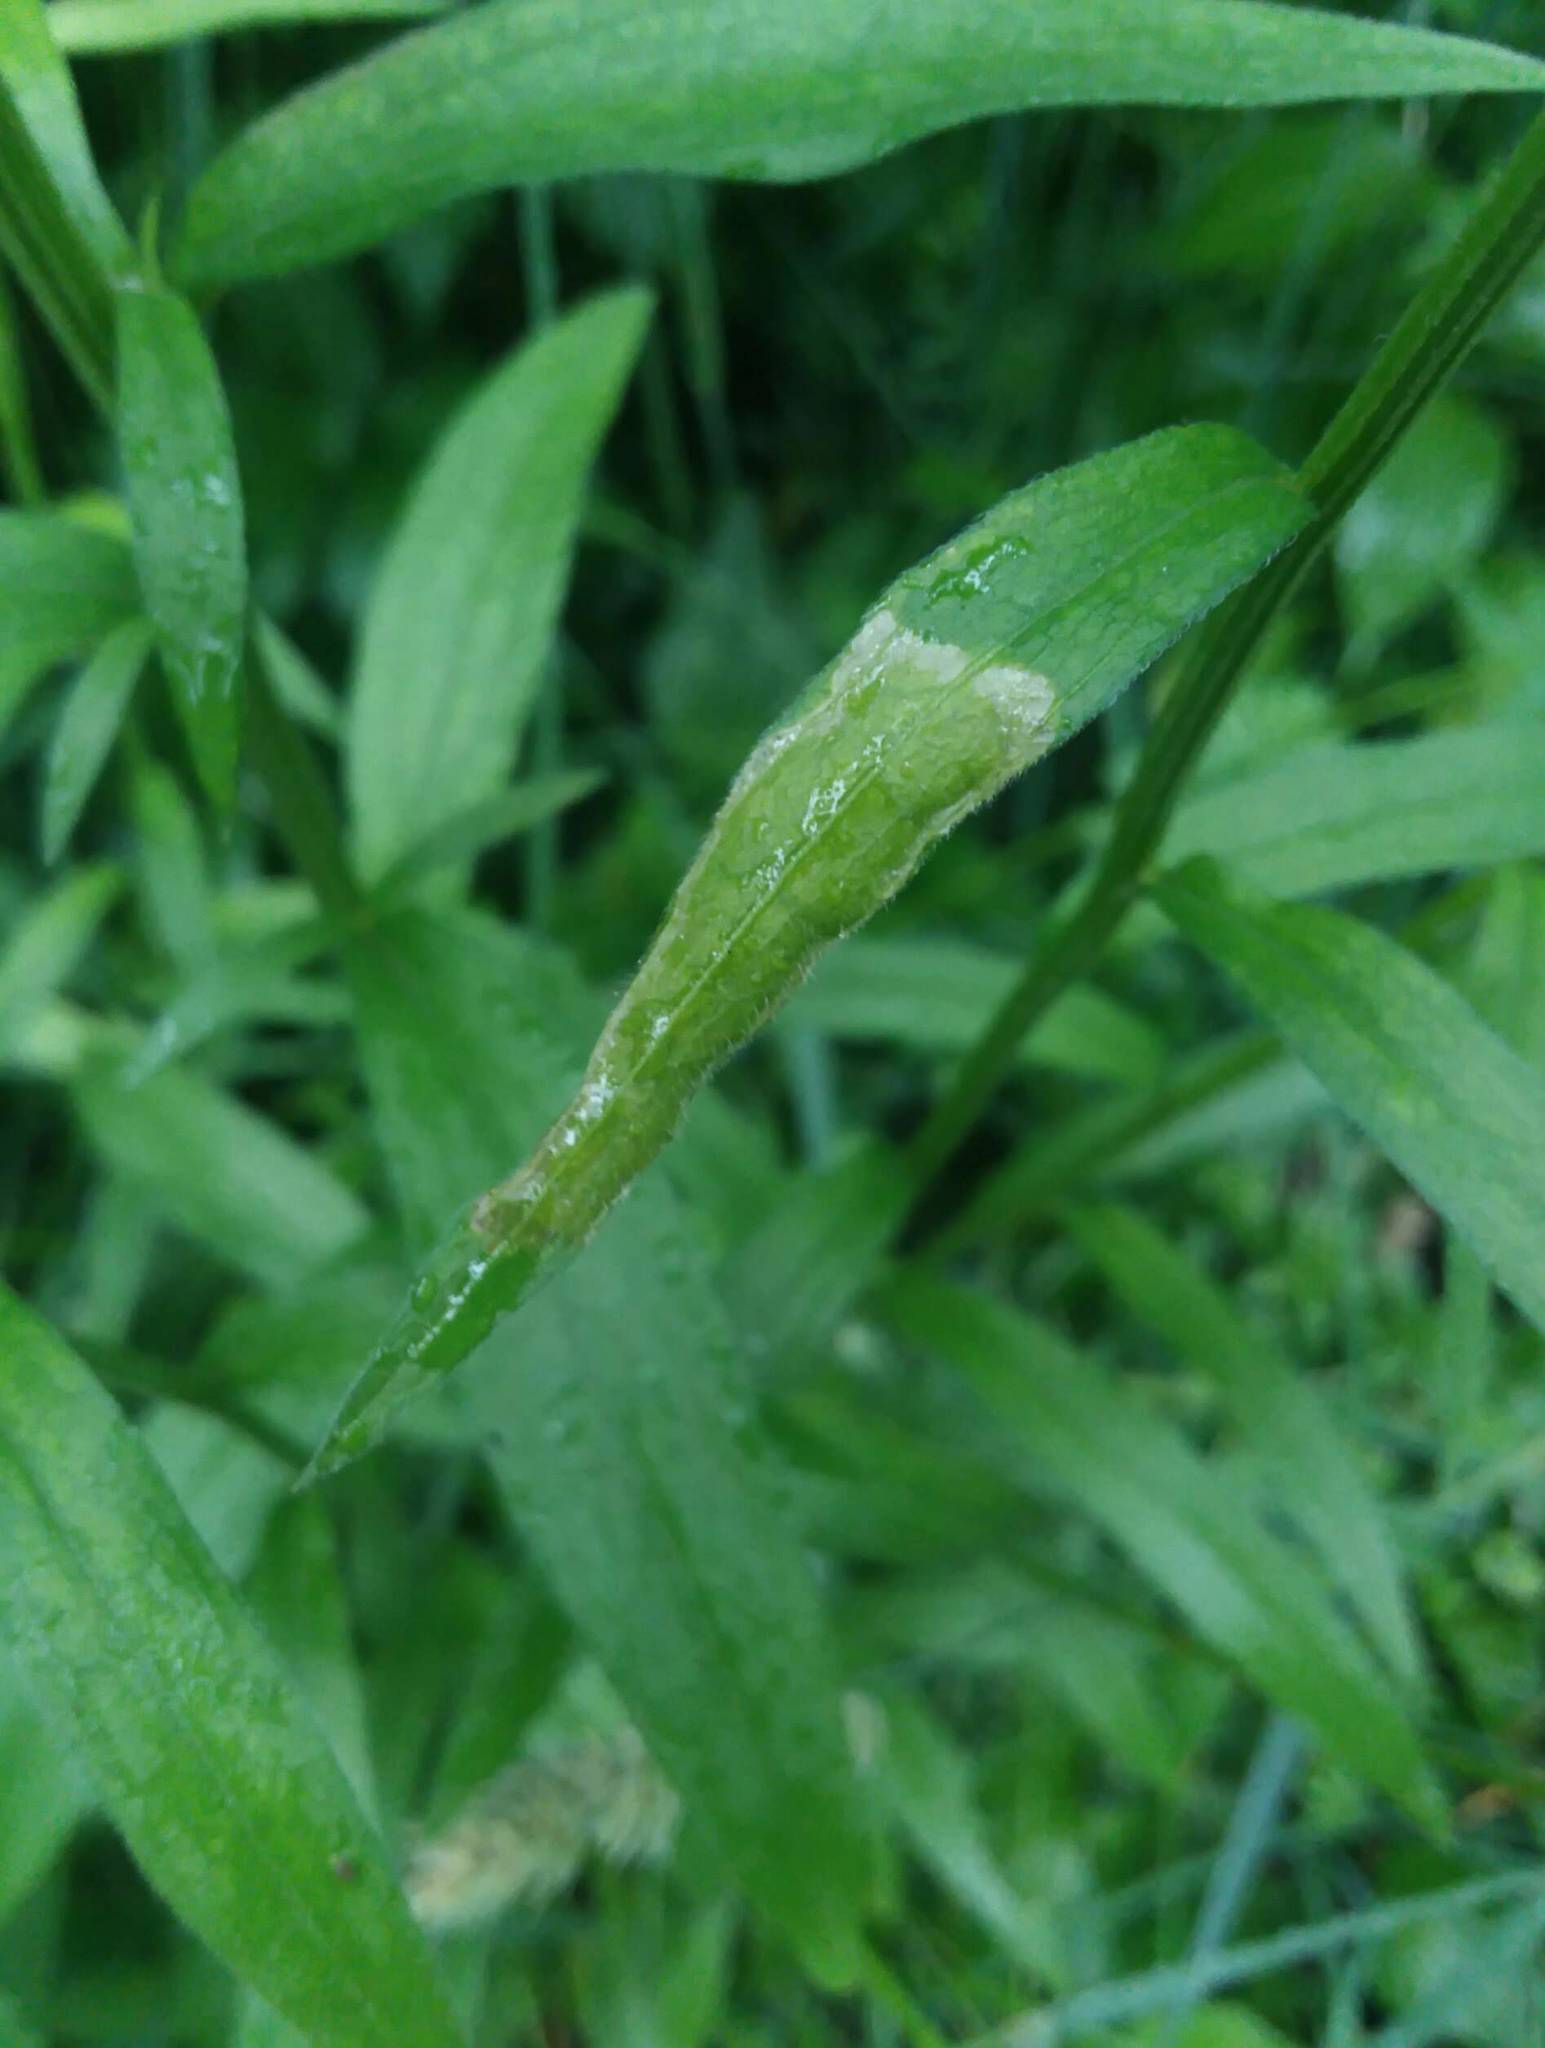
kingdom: Animalia
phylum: Arthropoda
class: Insecta
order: Lepidoptera
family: Gracillariidae
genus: Parectopa
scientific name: Parectopa plantaginisella
